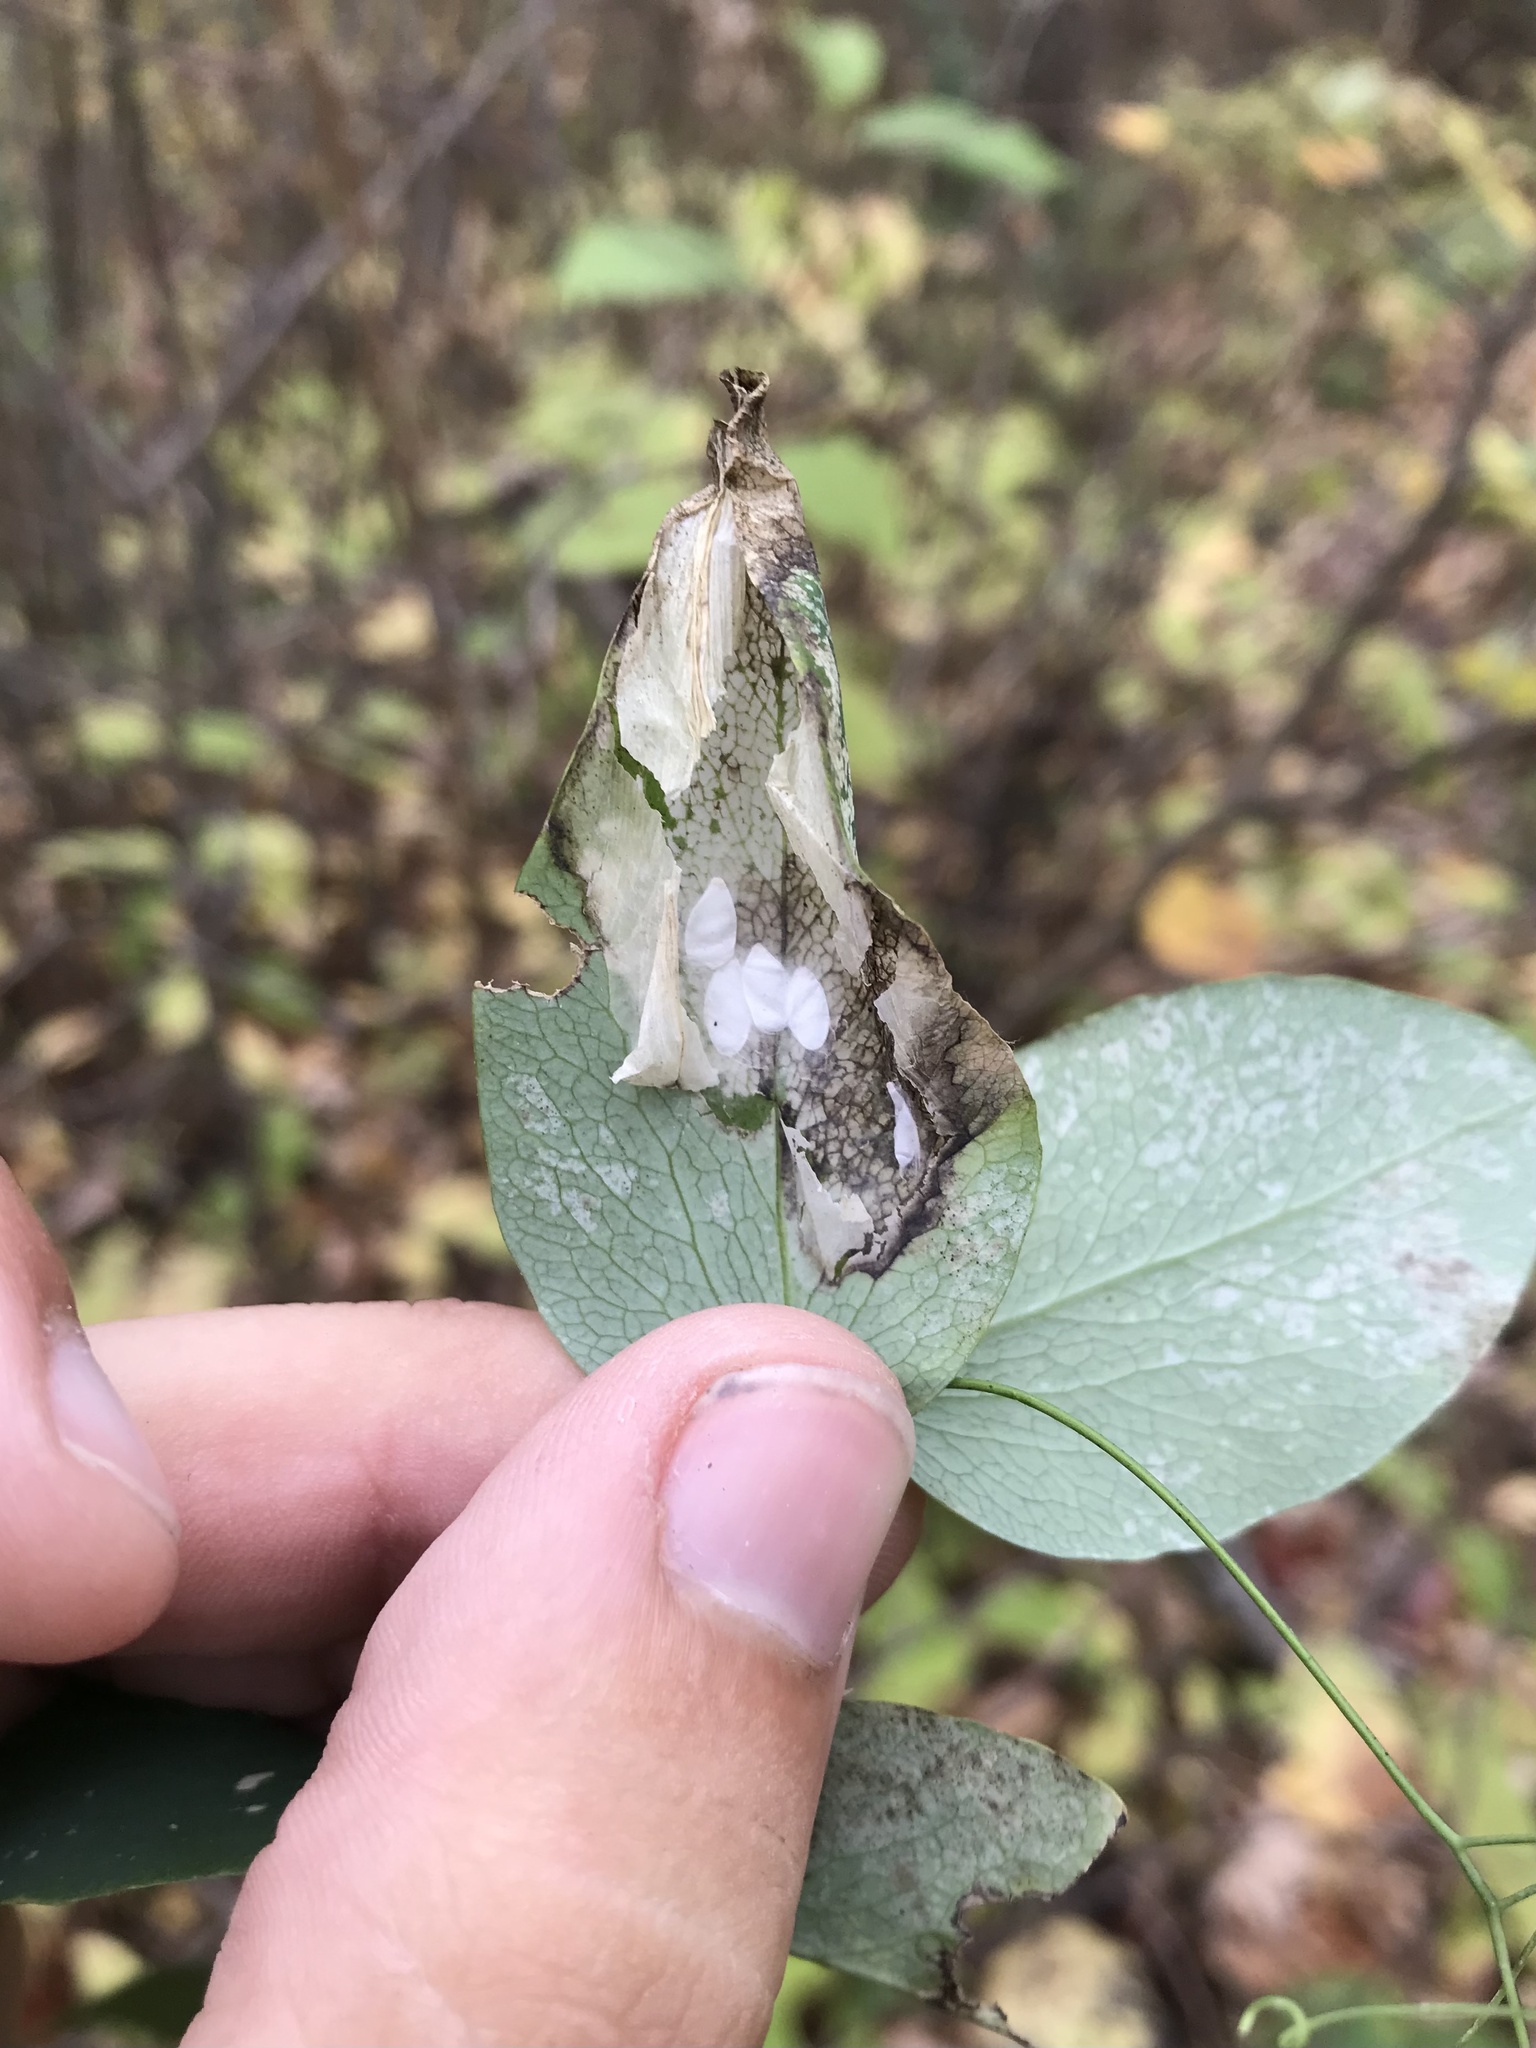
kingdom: Animalia
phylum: Arthropoda
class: Insecta
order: Lepidoptera
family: Gracillariidae
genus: Protolithocolletis
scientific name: Protolithocolletis lathyri
